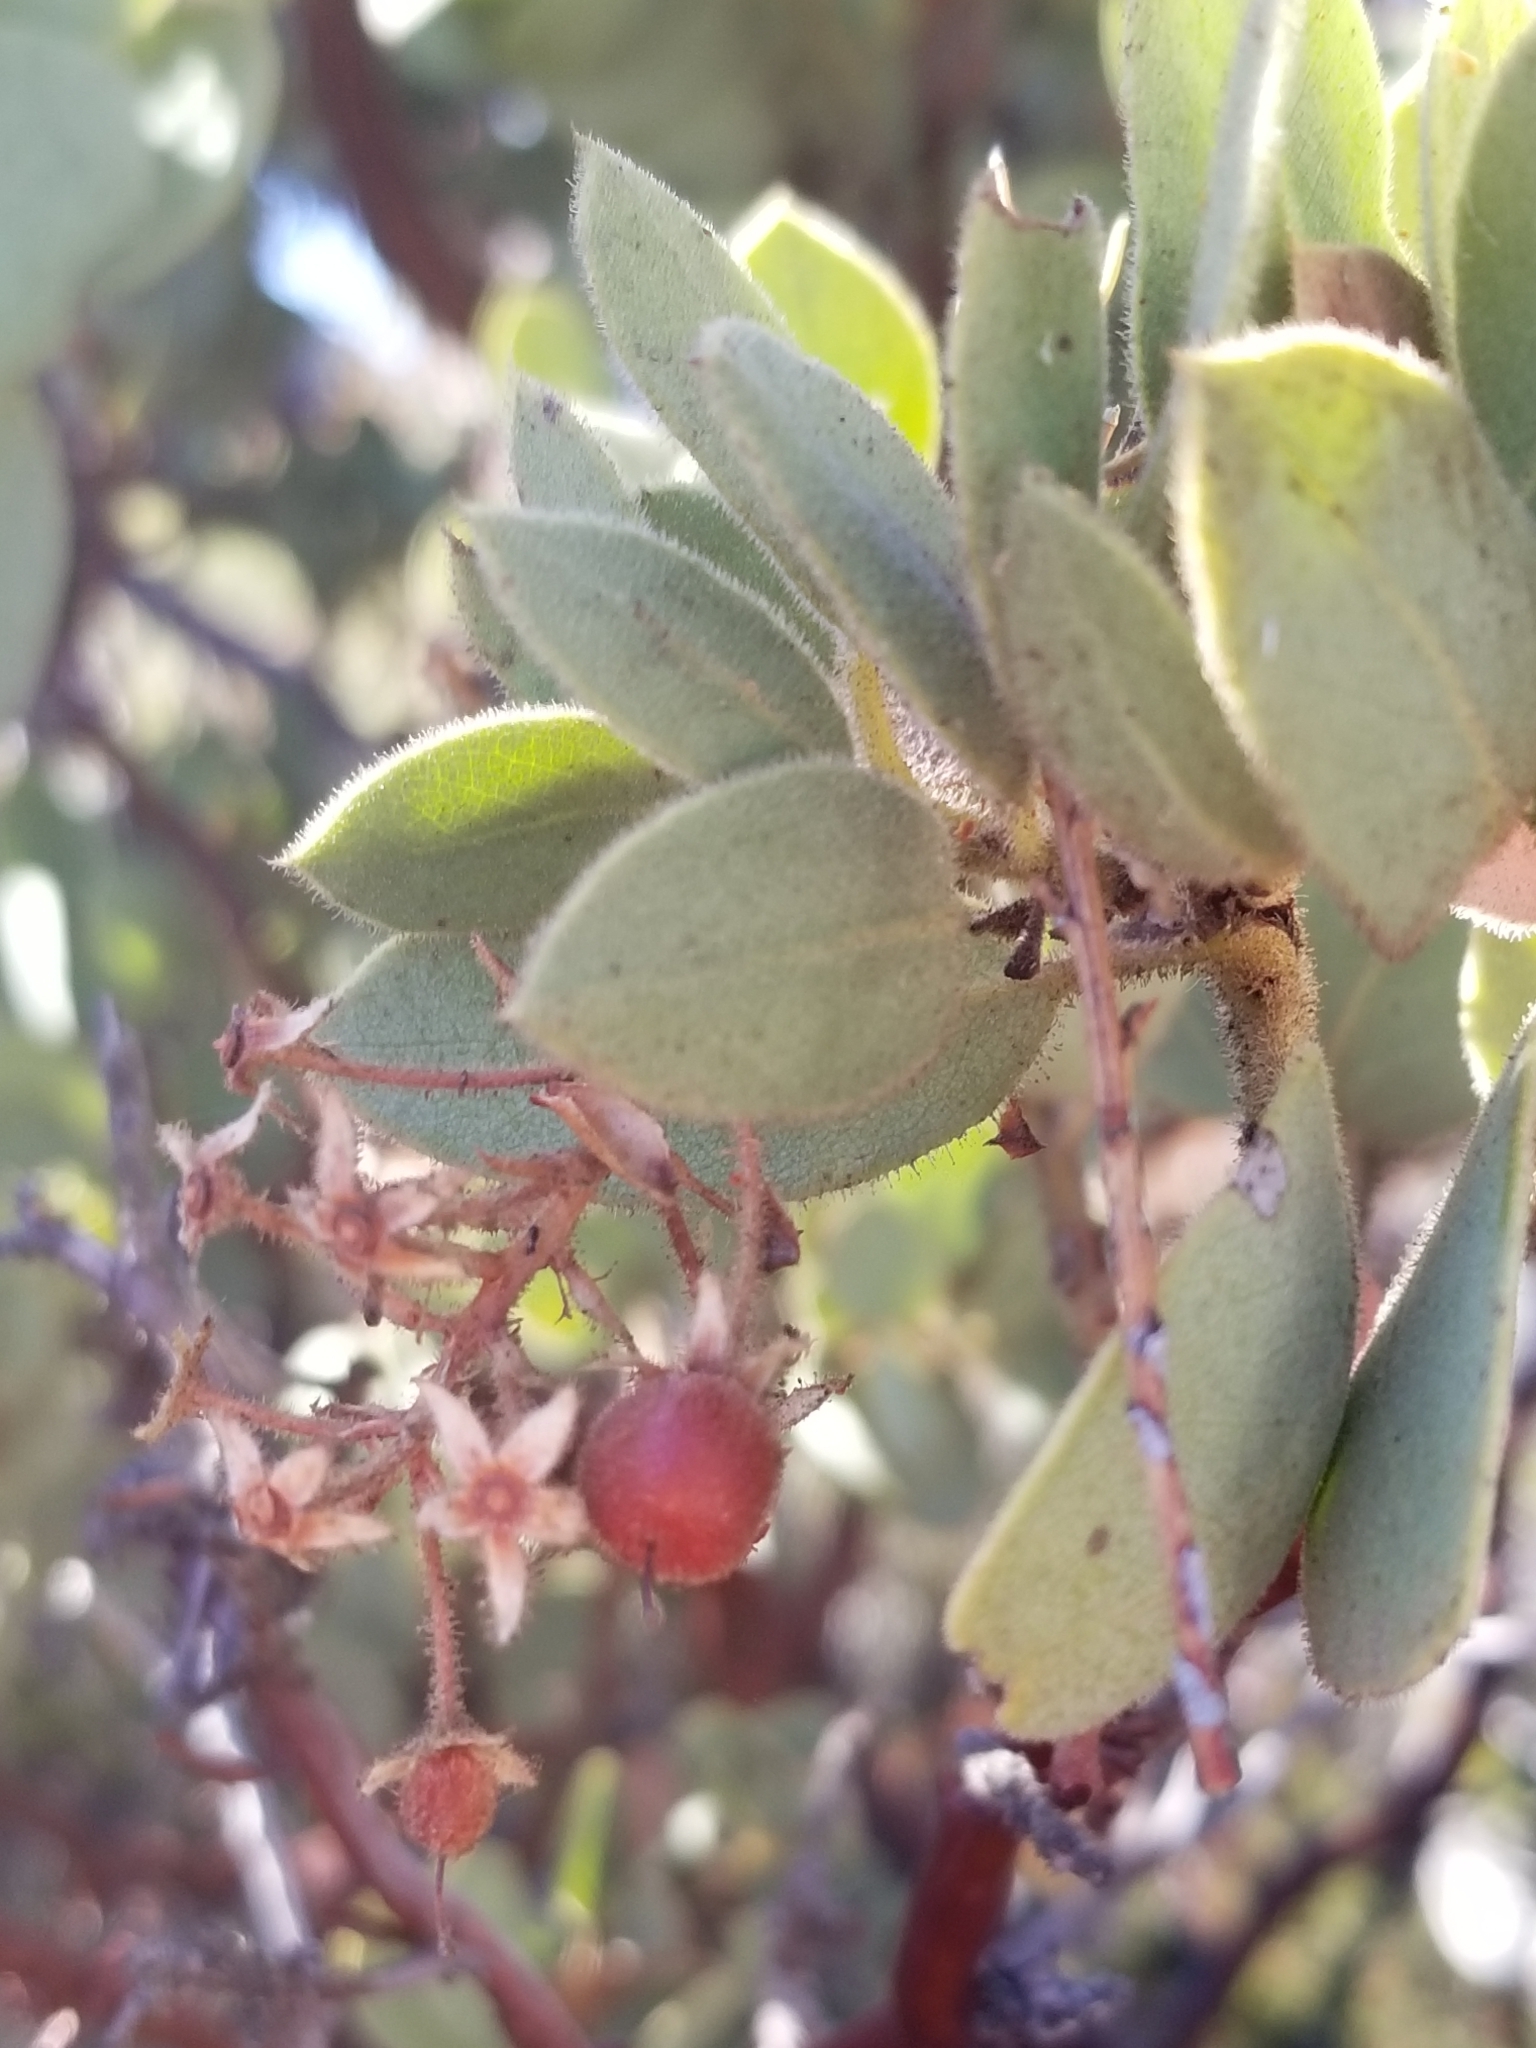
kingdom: Plantae
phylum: Tracheophyta
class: Magnoliopsida
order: Ericales
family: Ericaceae
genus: Arctostaphylos
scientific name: Arctostaphylos pringlei
